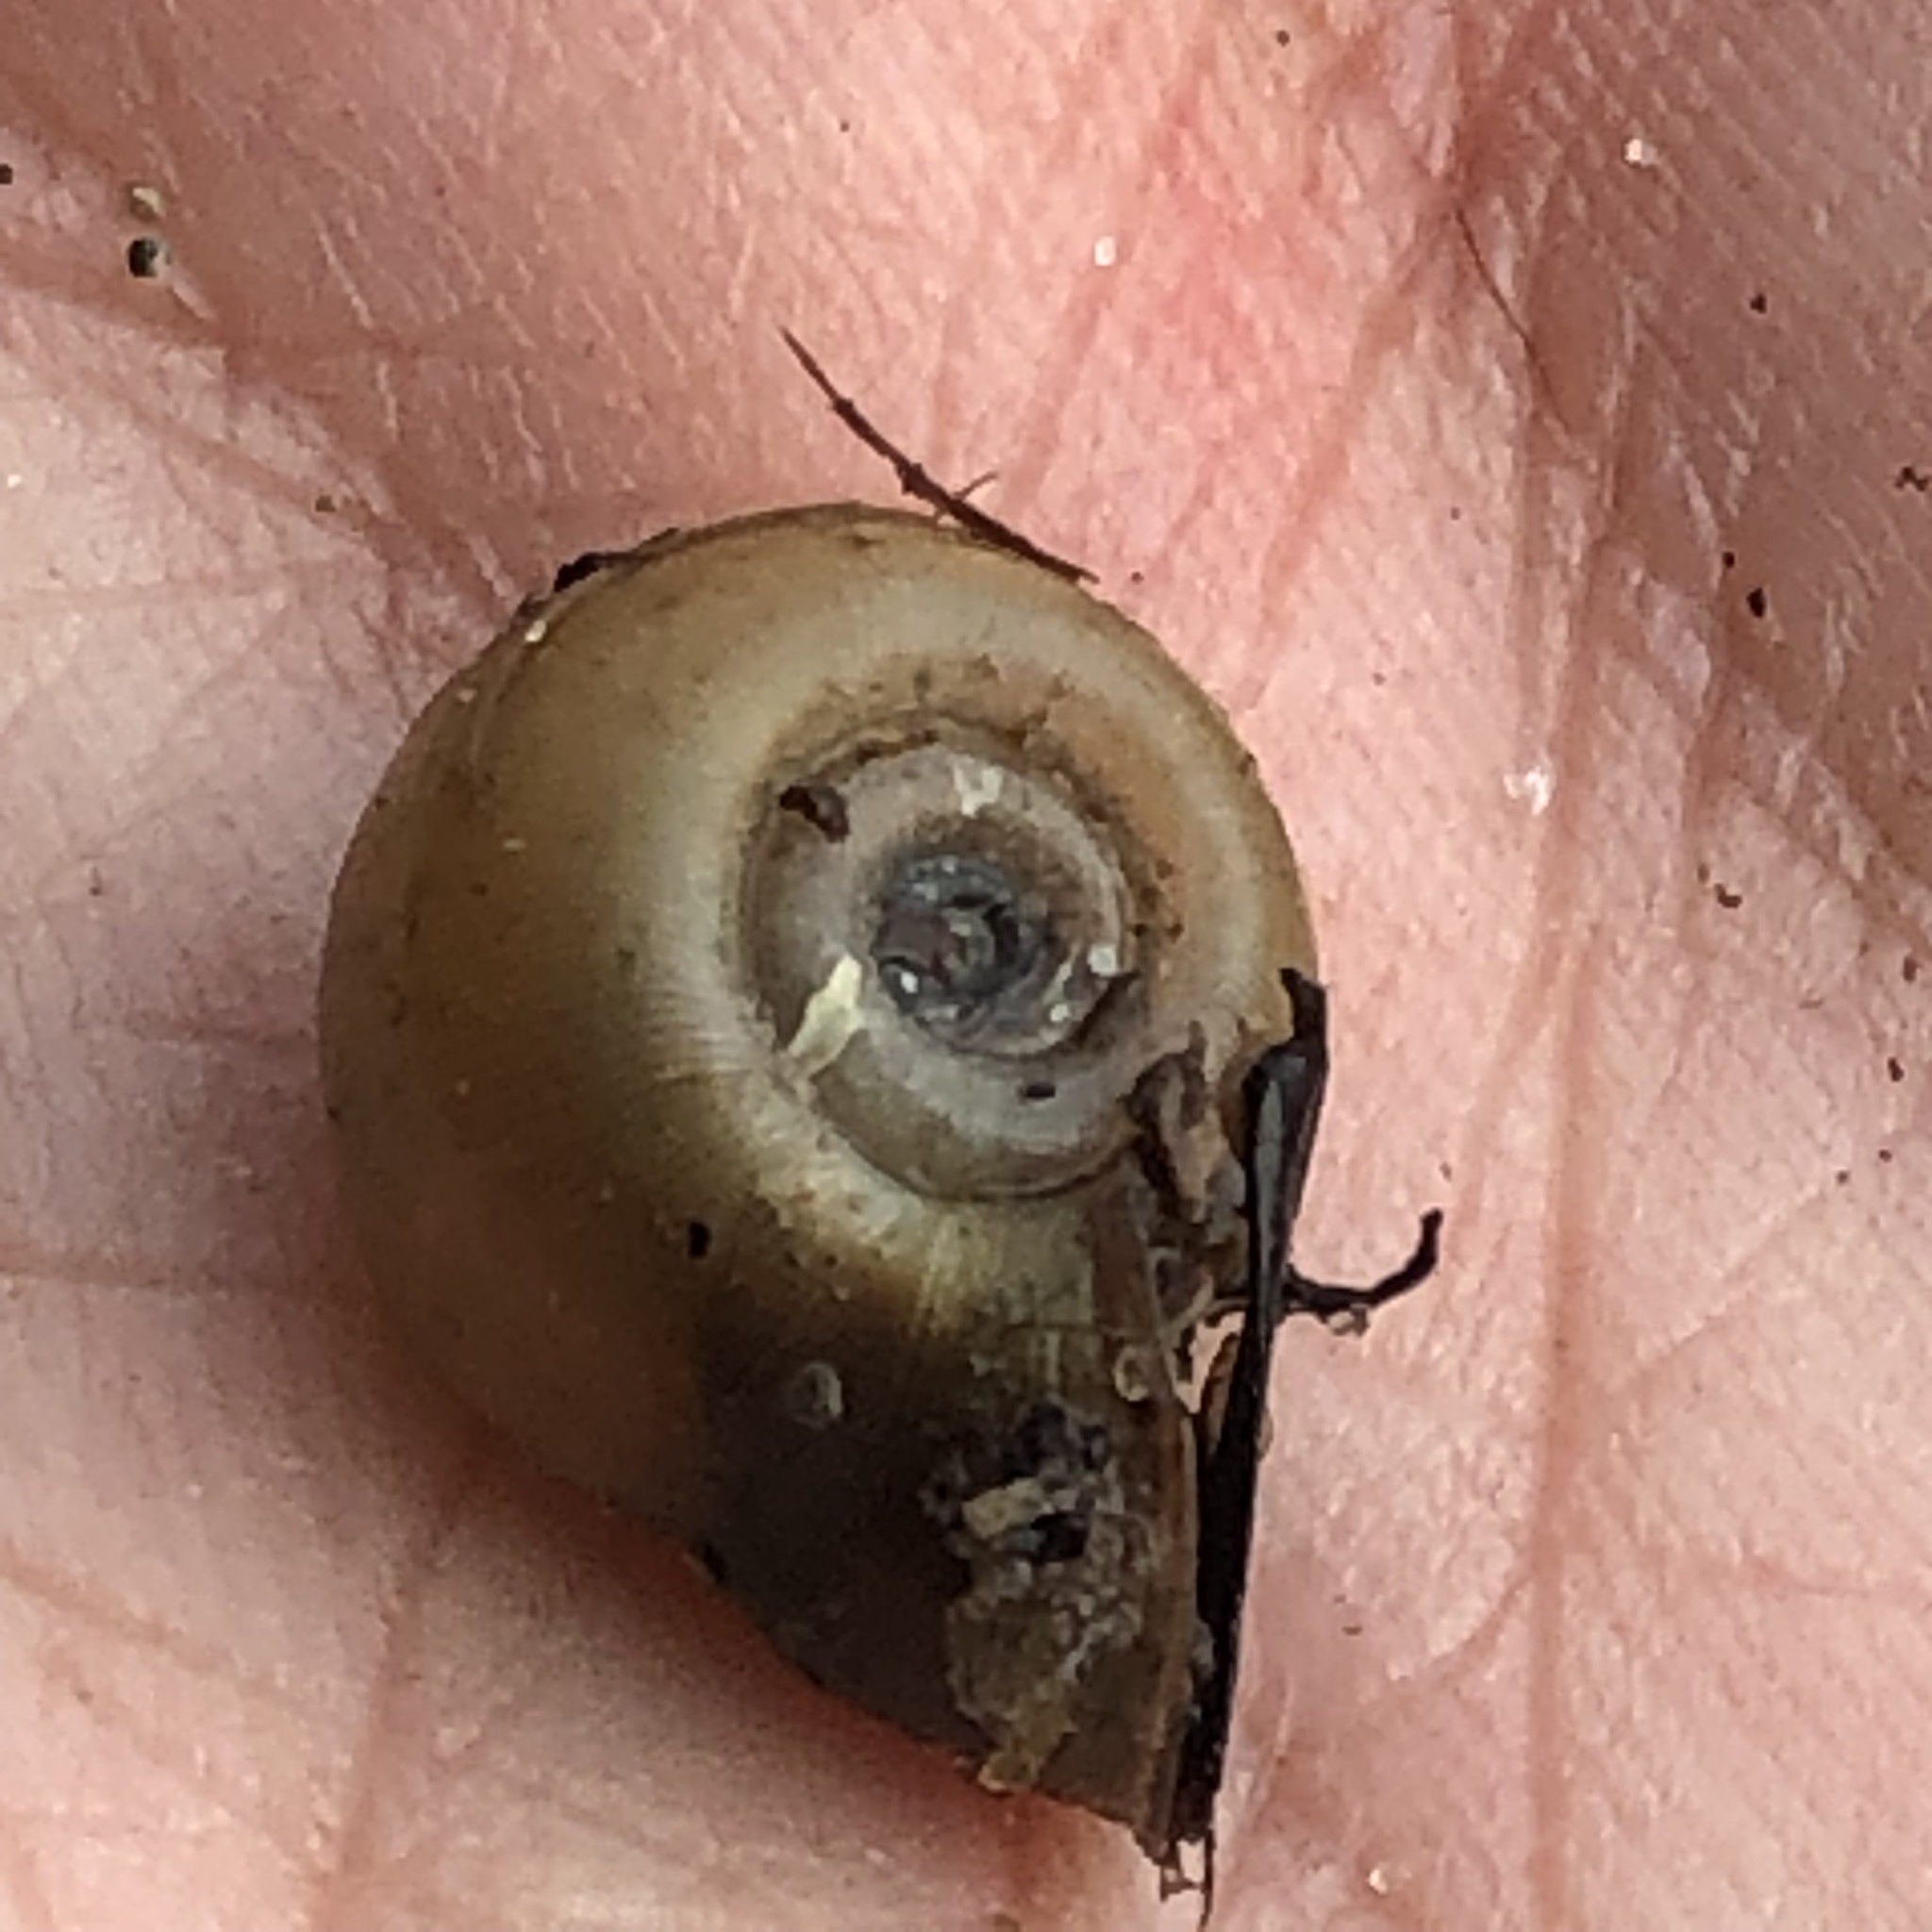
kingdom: Animalia
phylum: Mollusca
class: Gastropoda
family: Planorbidae
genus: Planorbella
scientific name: Planorbella campanulata
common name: Bellmouth ramshorn
